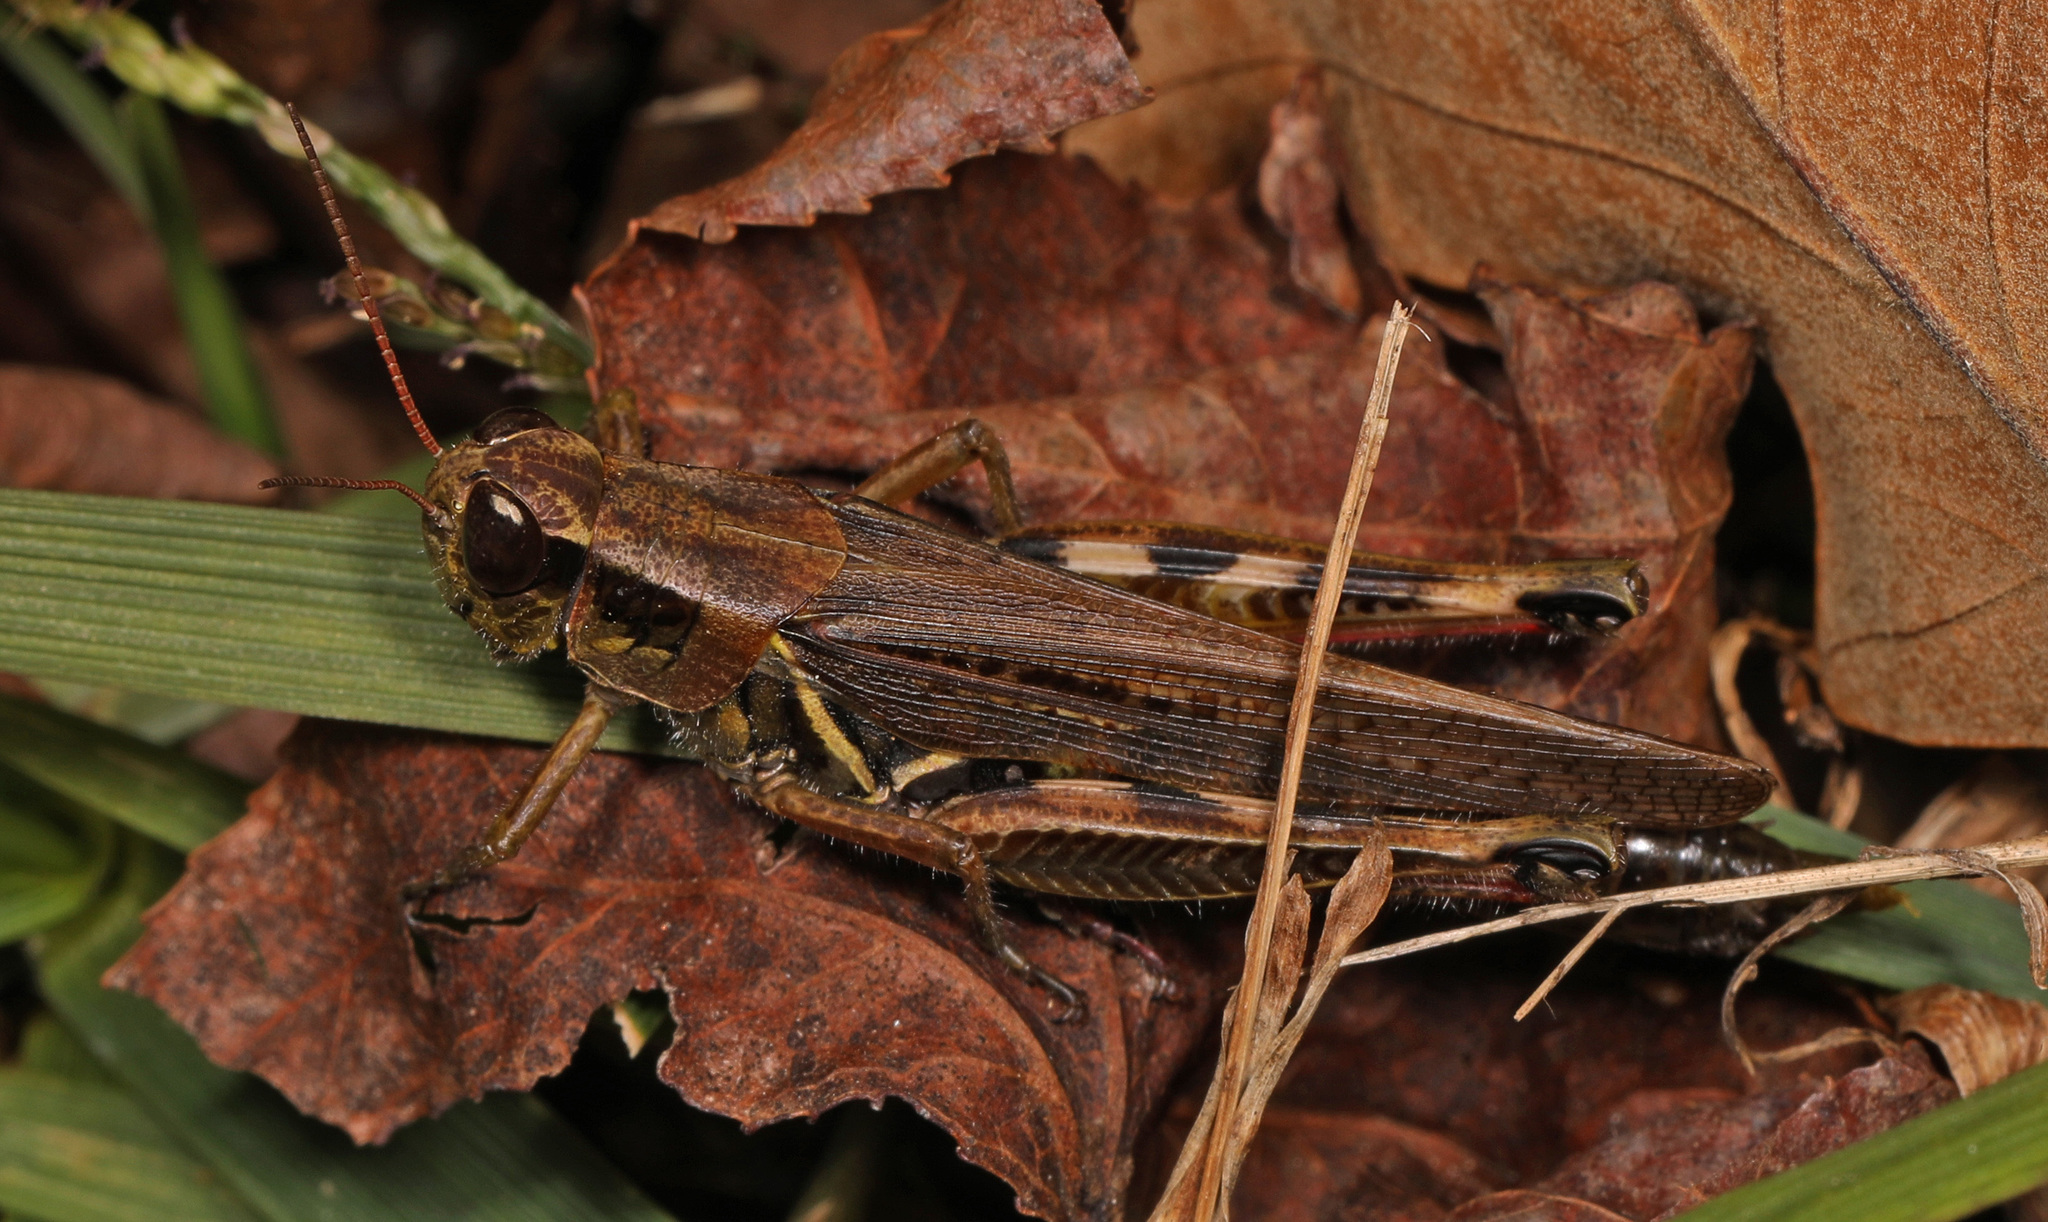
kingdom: Animalia
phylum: Arthropoda
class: Insecta
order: Orthoptera
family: Acrididae
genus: Melanoplus
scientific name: Melanoplus femurrubrum
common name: Red-legged grasshopper
